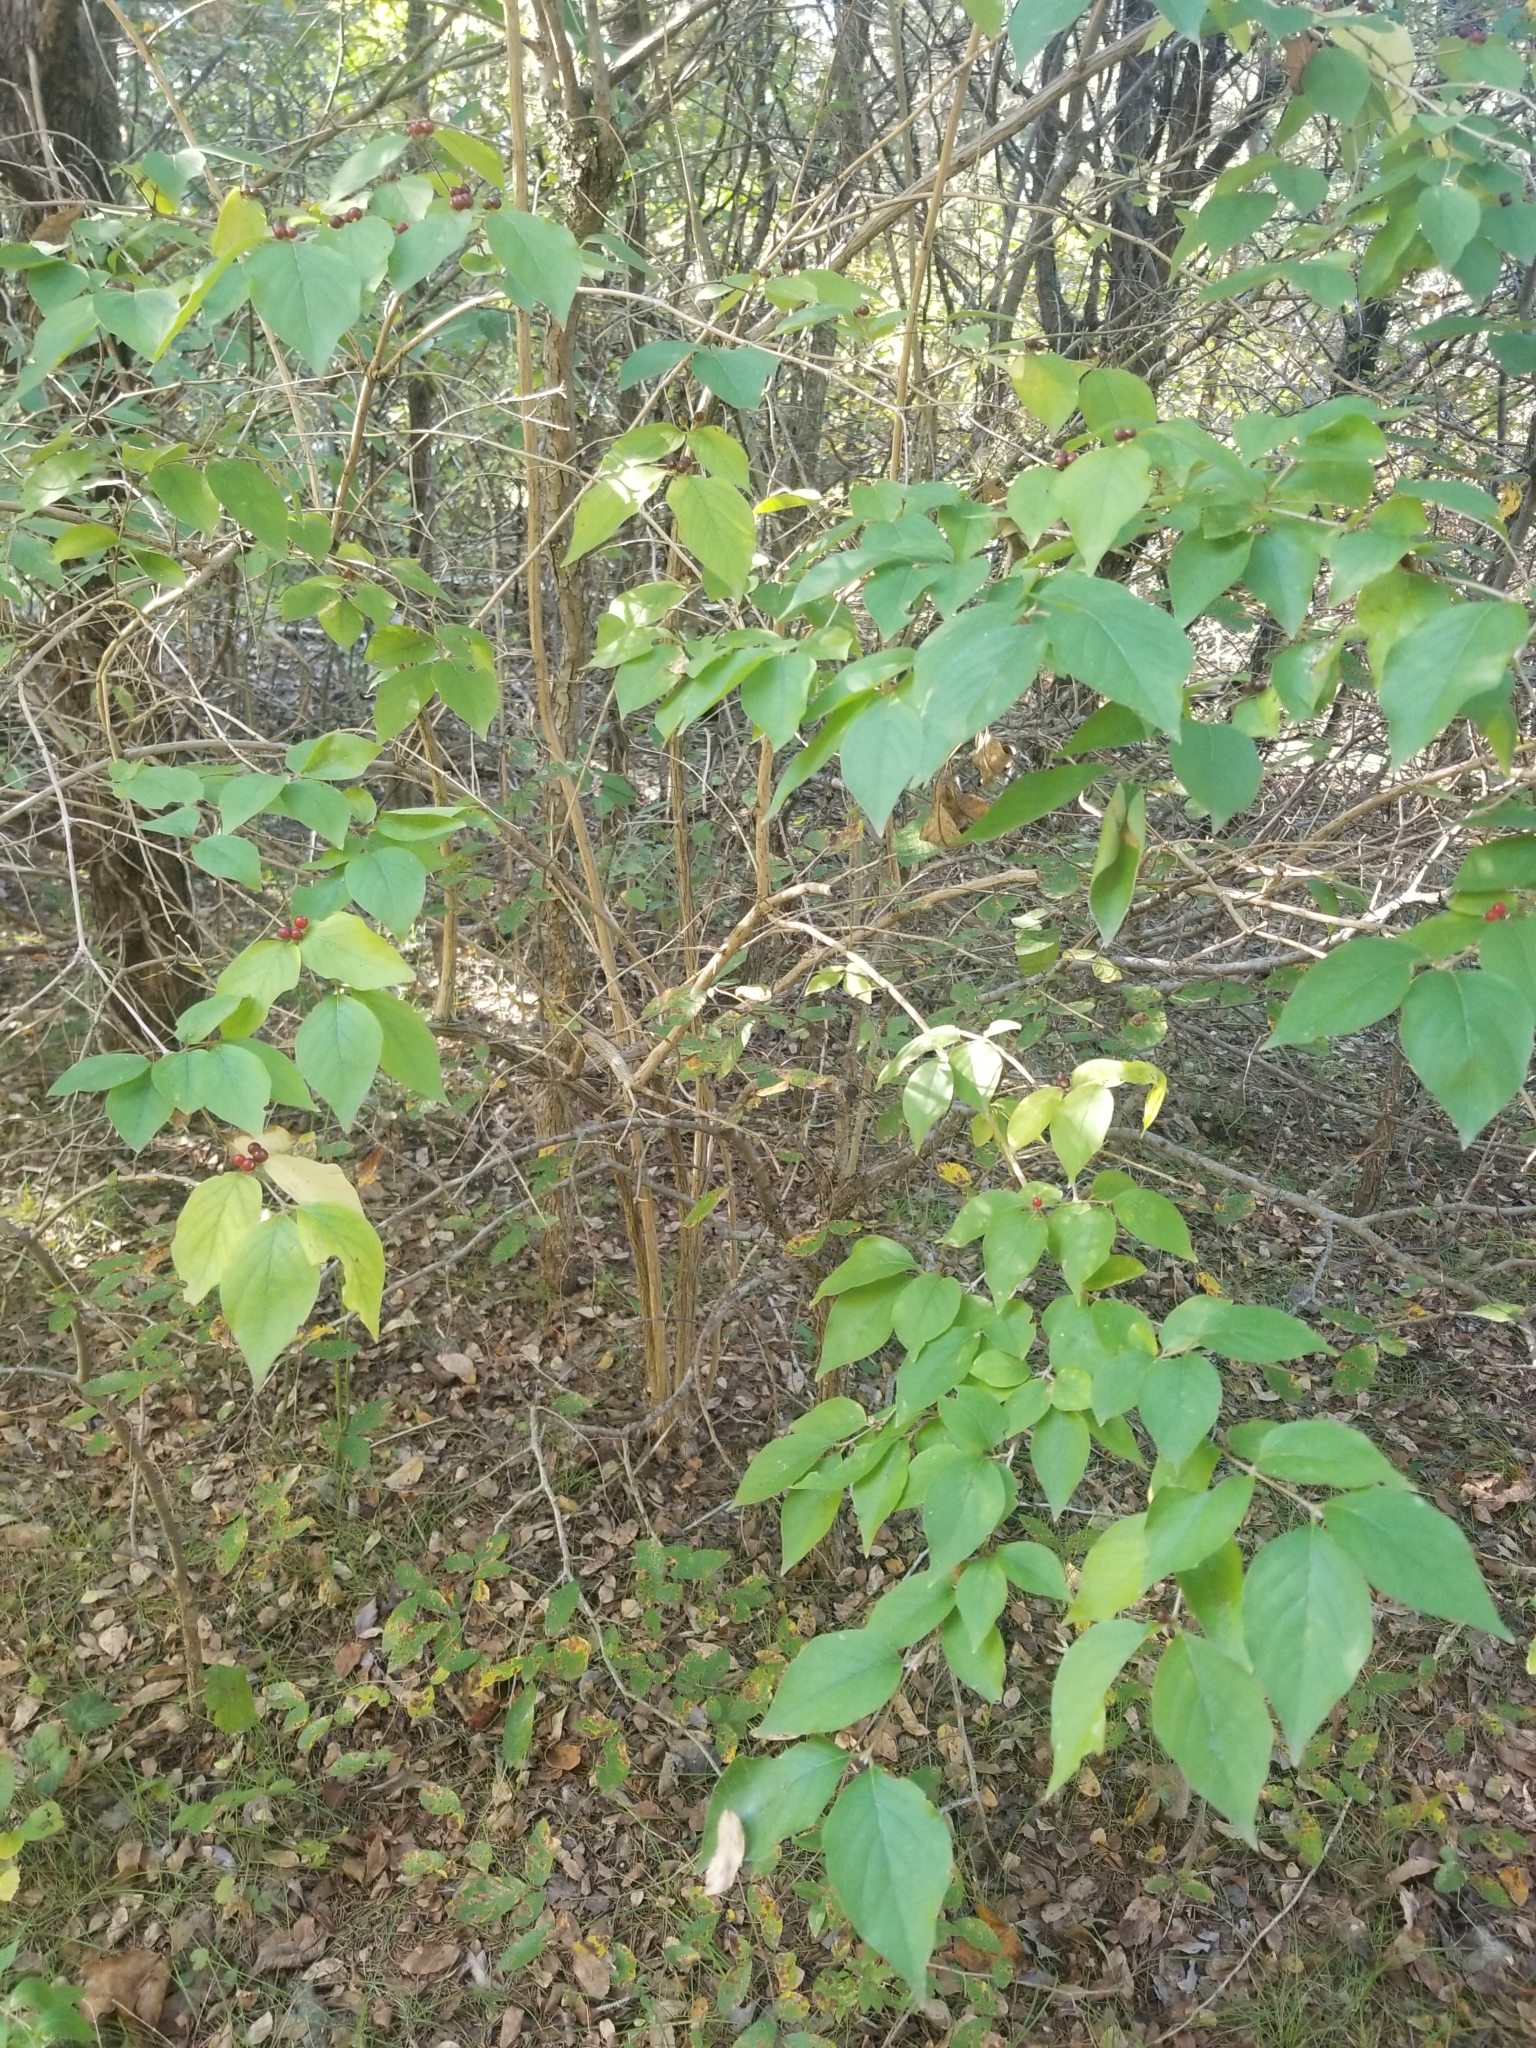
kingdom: Plantae
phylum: Tracheophyta
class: Magnoliopsida
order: Rosales
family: Rhamnaceae
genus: Frangula
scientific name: Frangula caroliniana
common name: Carolina buckthorn
